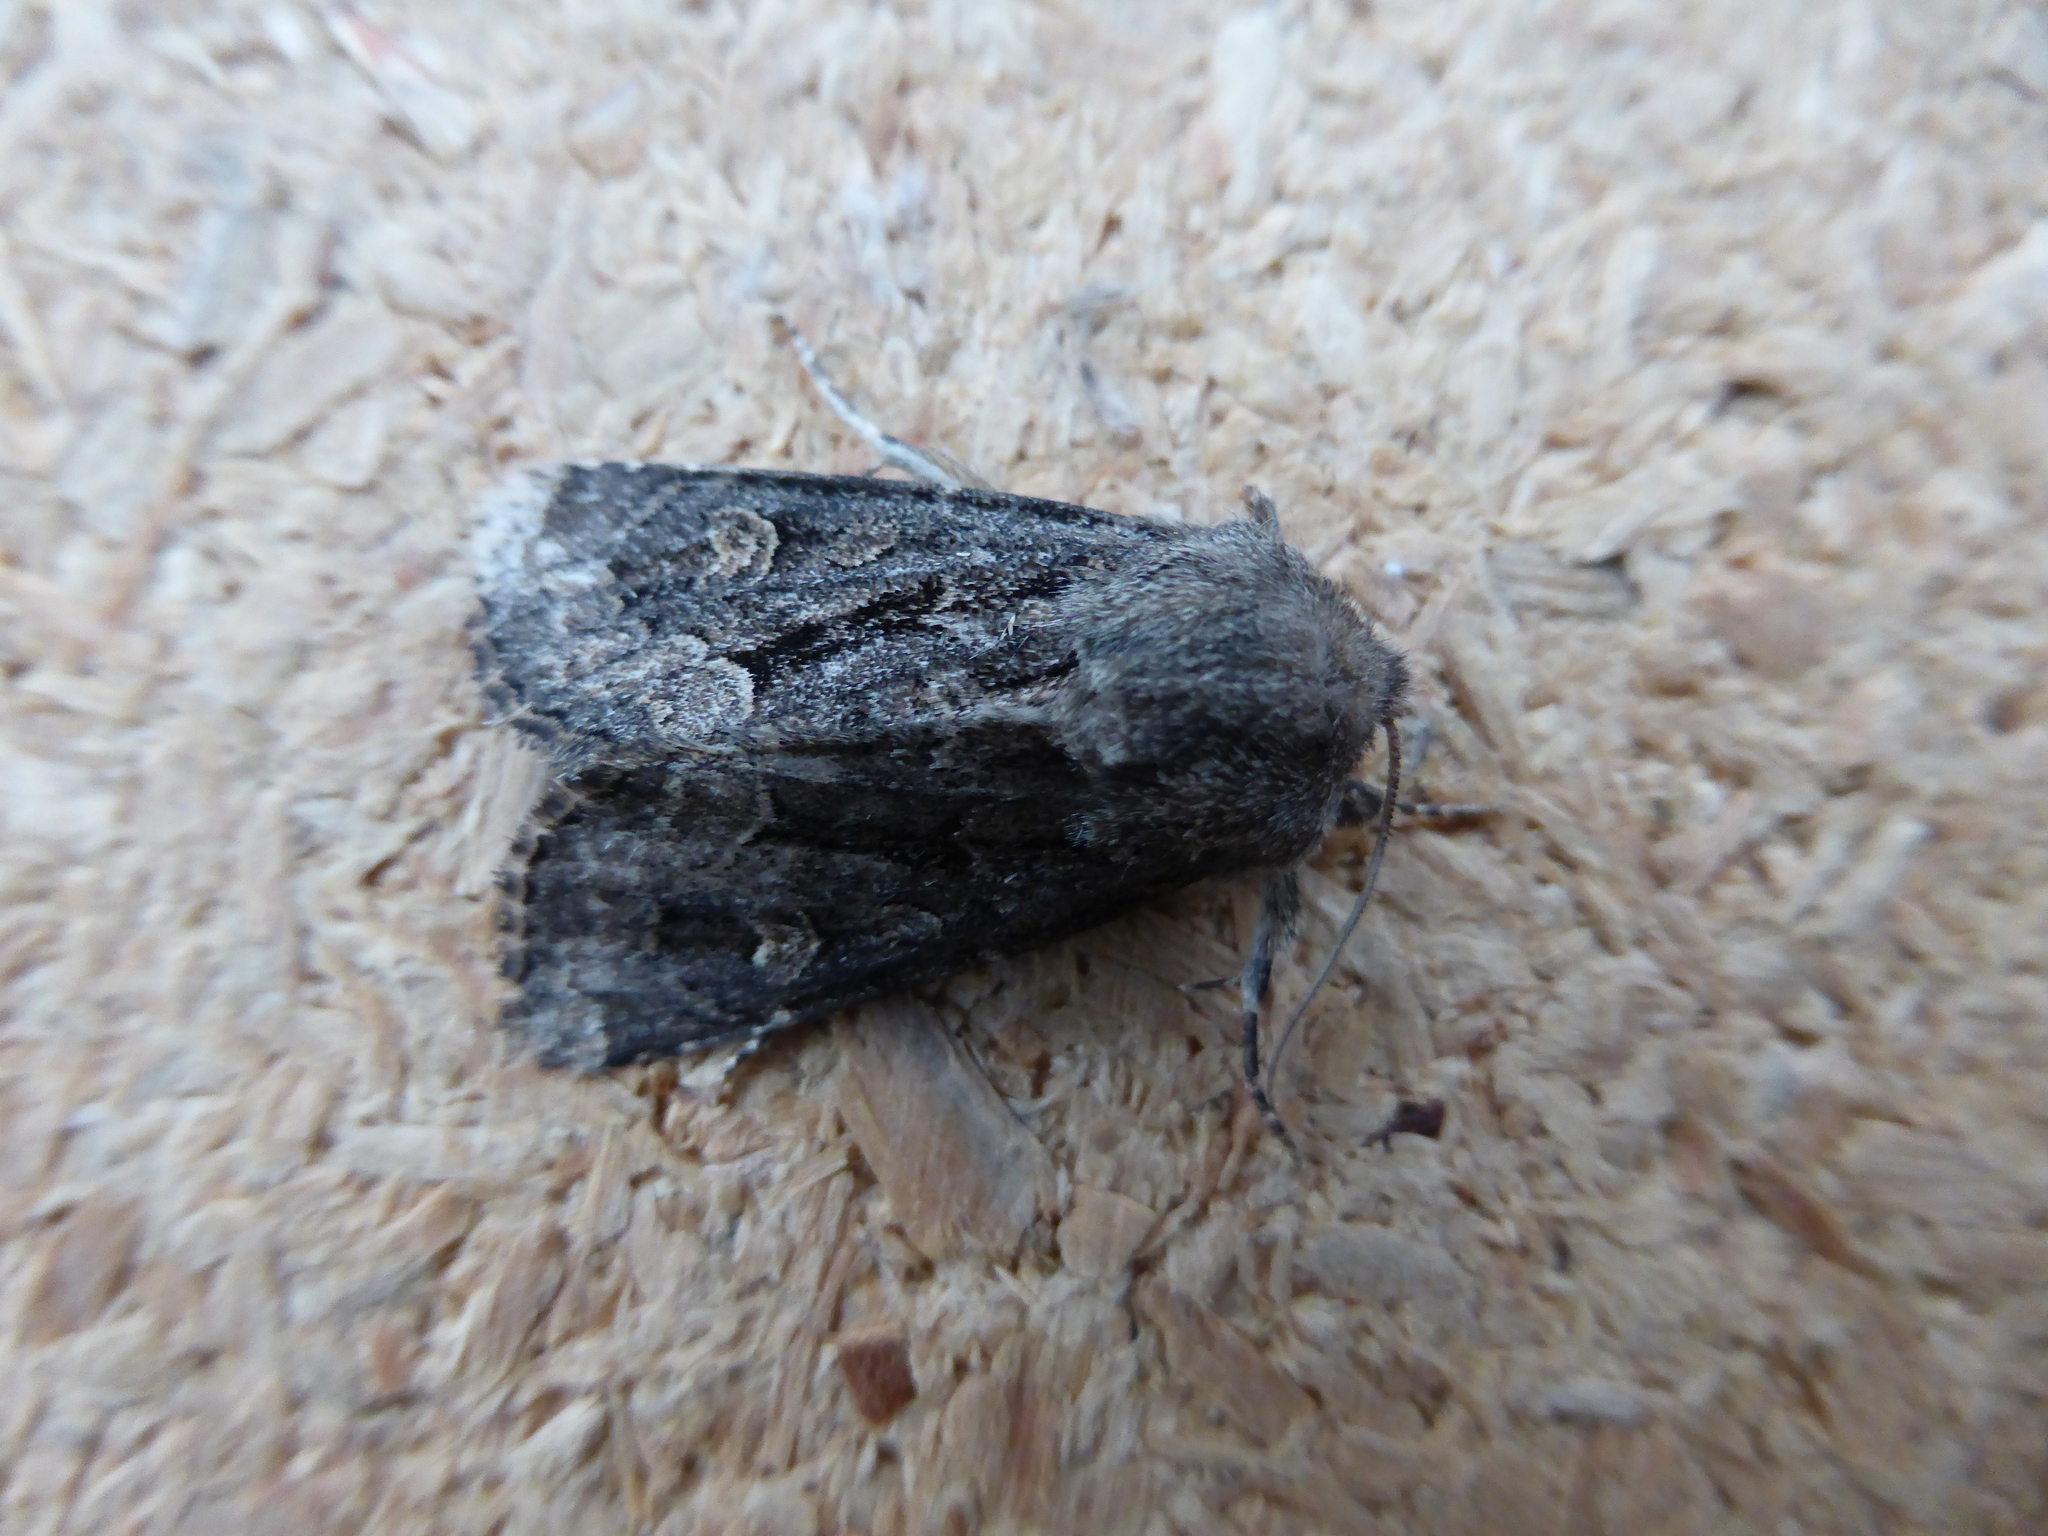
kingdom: Animalia
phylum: Arthropoda
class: Insecta
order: Lepidoptera
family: Noctuidae
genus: Luperina
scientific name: Luperina testacea
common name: Flounced rustic
